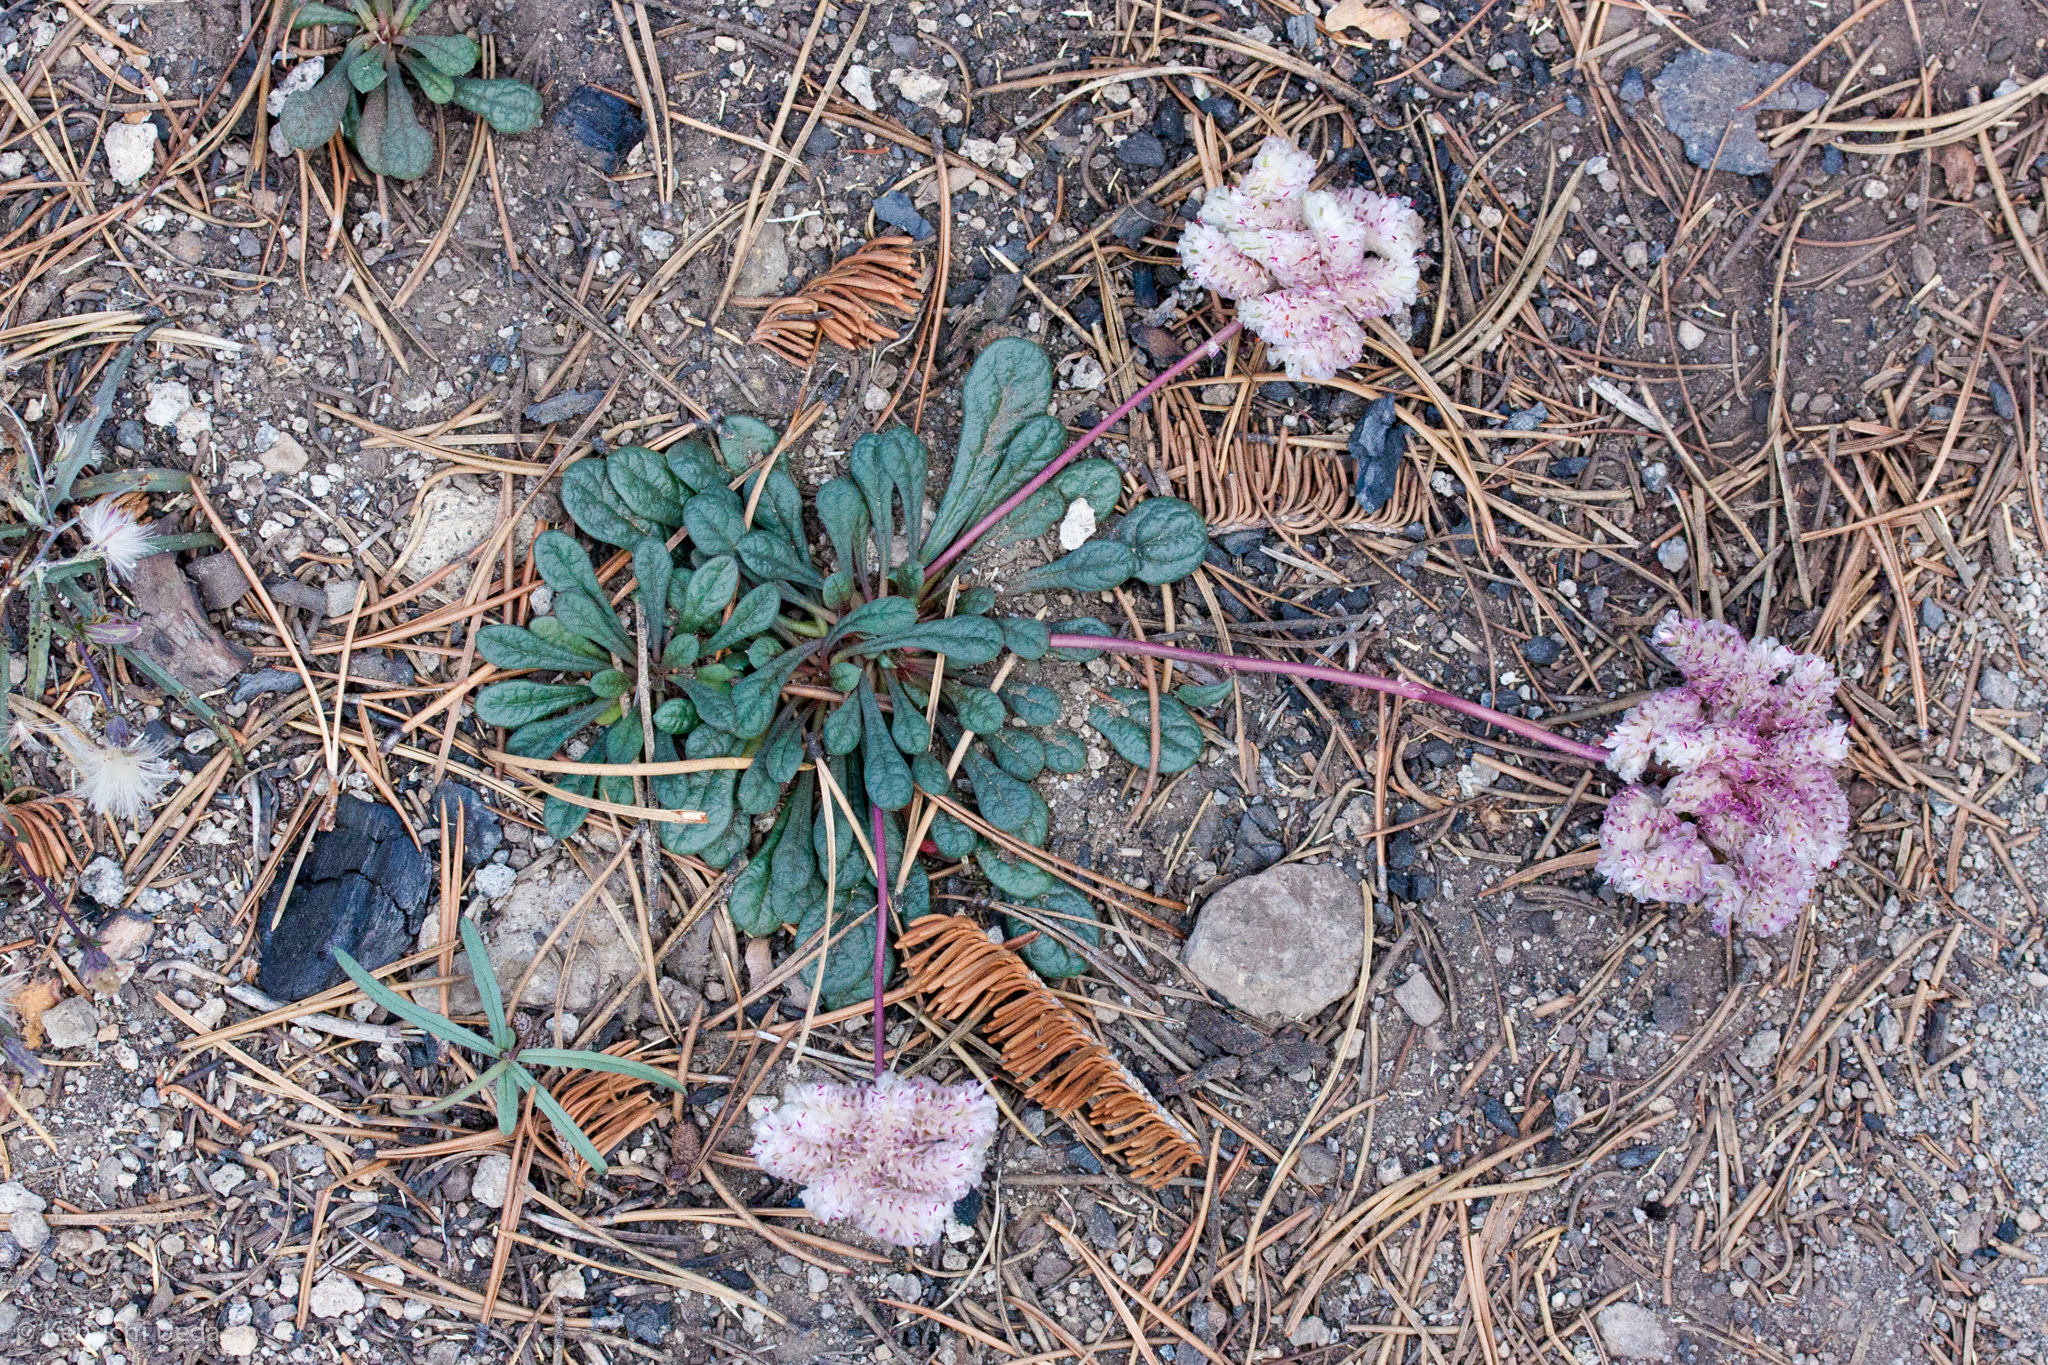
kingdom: Plantae
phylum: Tracheophyta
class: Magnoliopsida
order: Caryophyllales
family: Montiaceae
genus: Calyptridium
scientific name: Calyptridium monospermum
